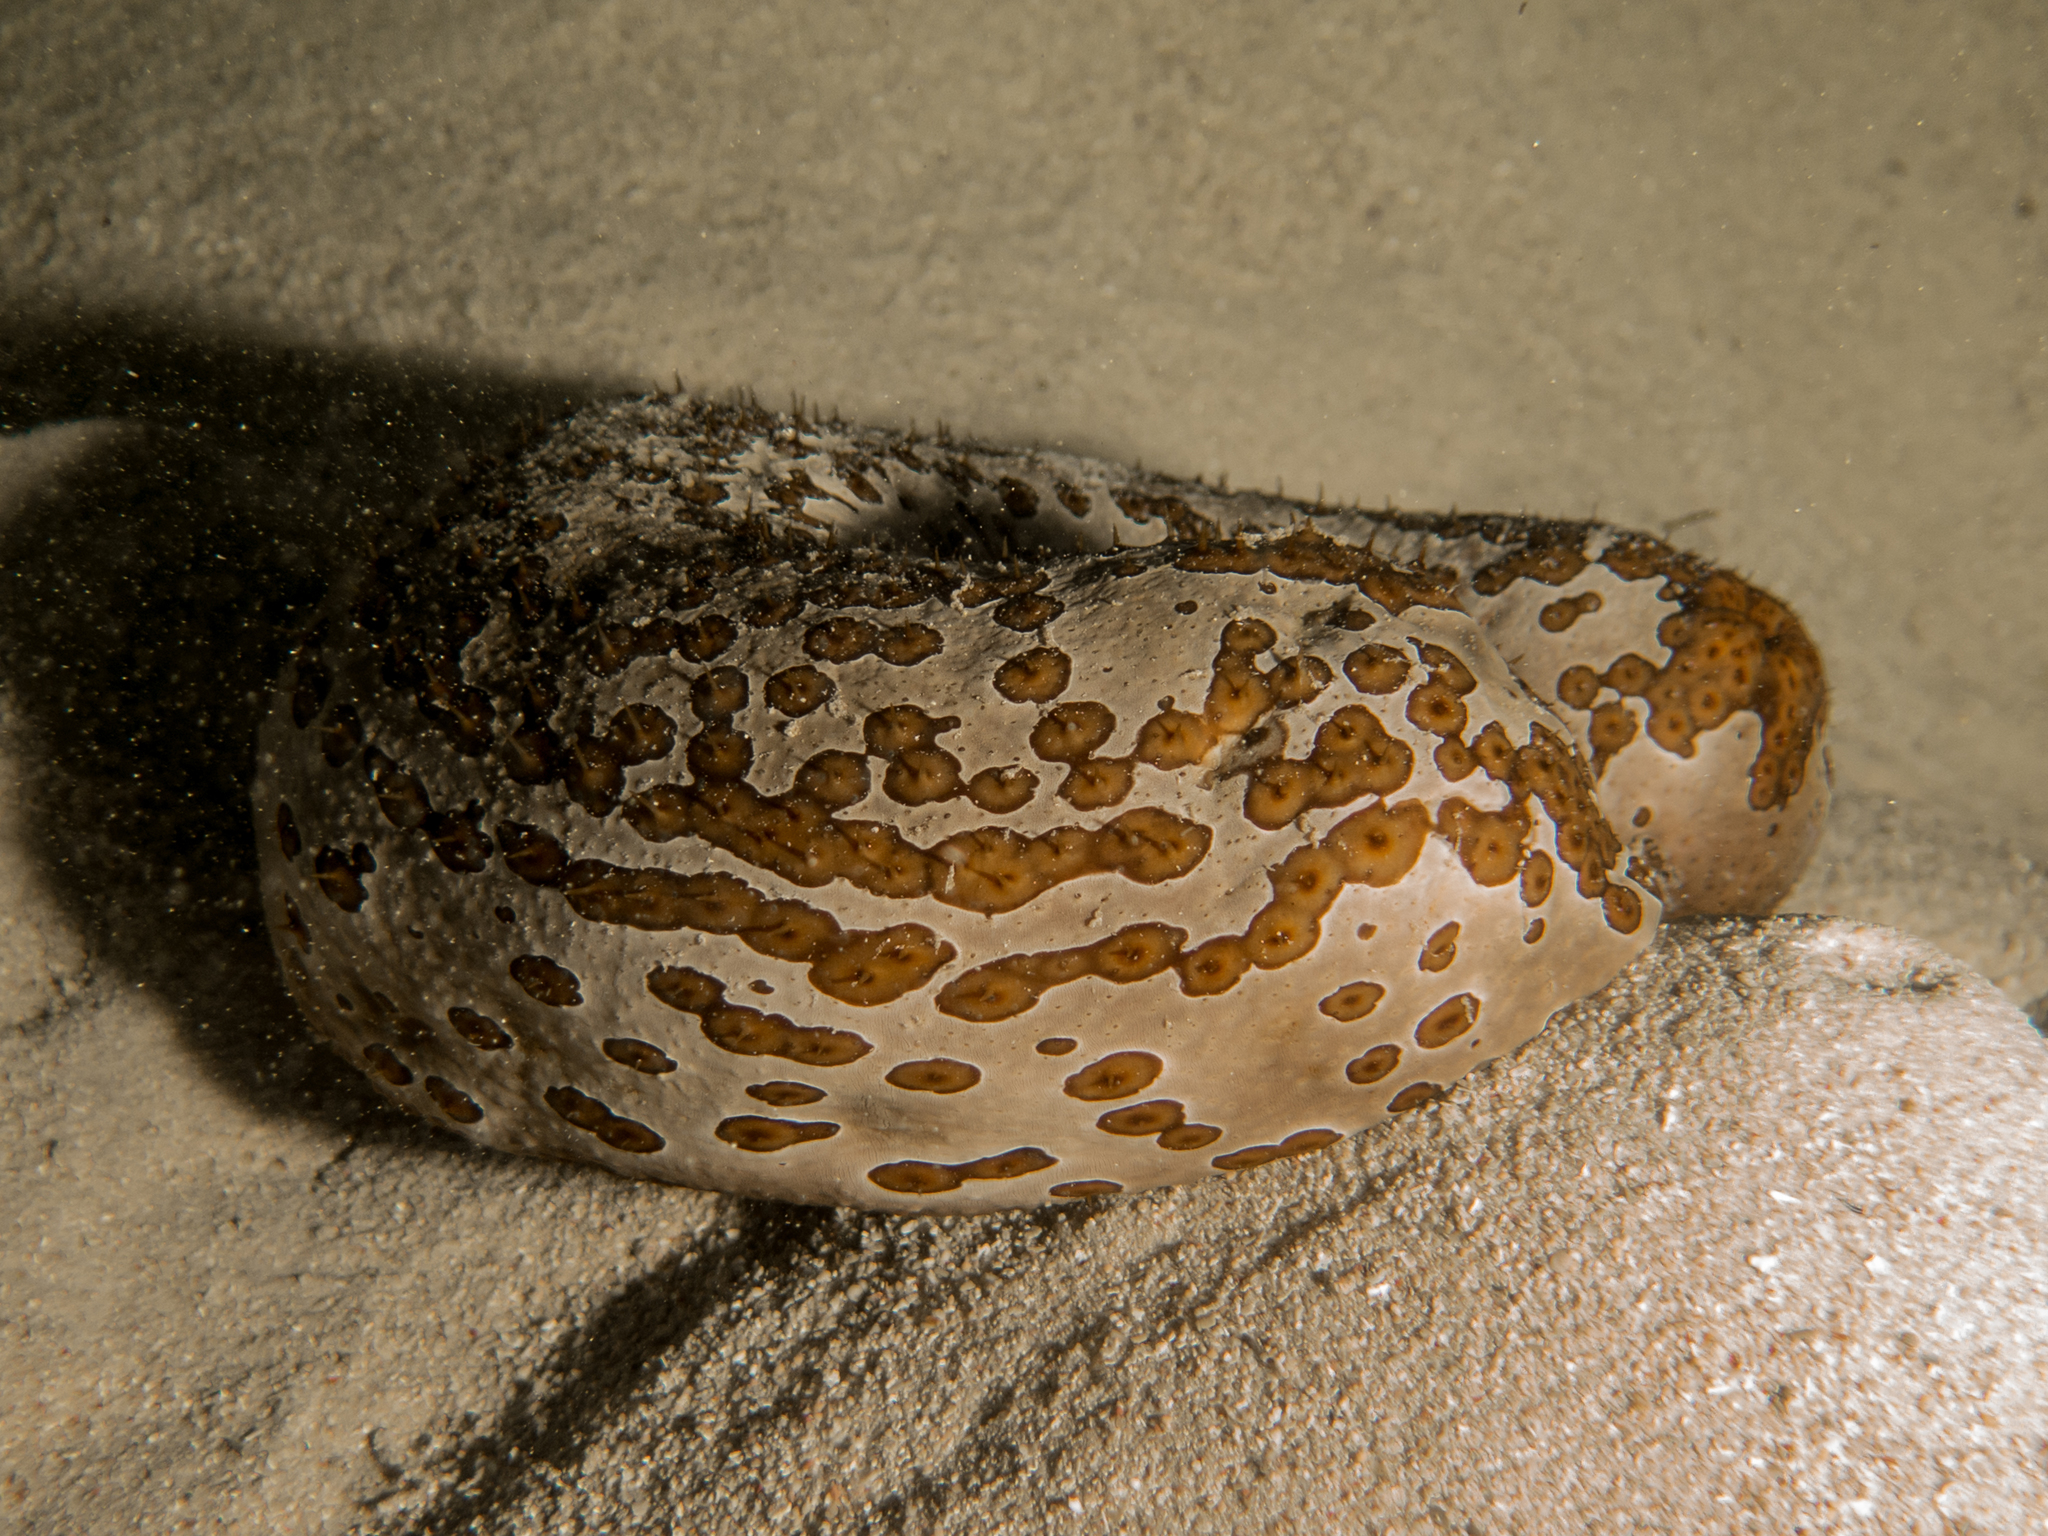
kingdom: Animalia
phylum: Echinodermata
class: Holothuroidea
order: Holothuriida
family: Holothuriidae
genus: Bohadschia
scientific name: Bohadschia argus
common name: Leopardfish
